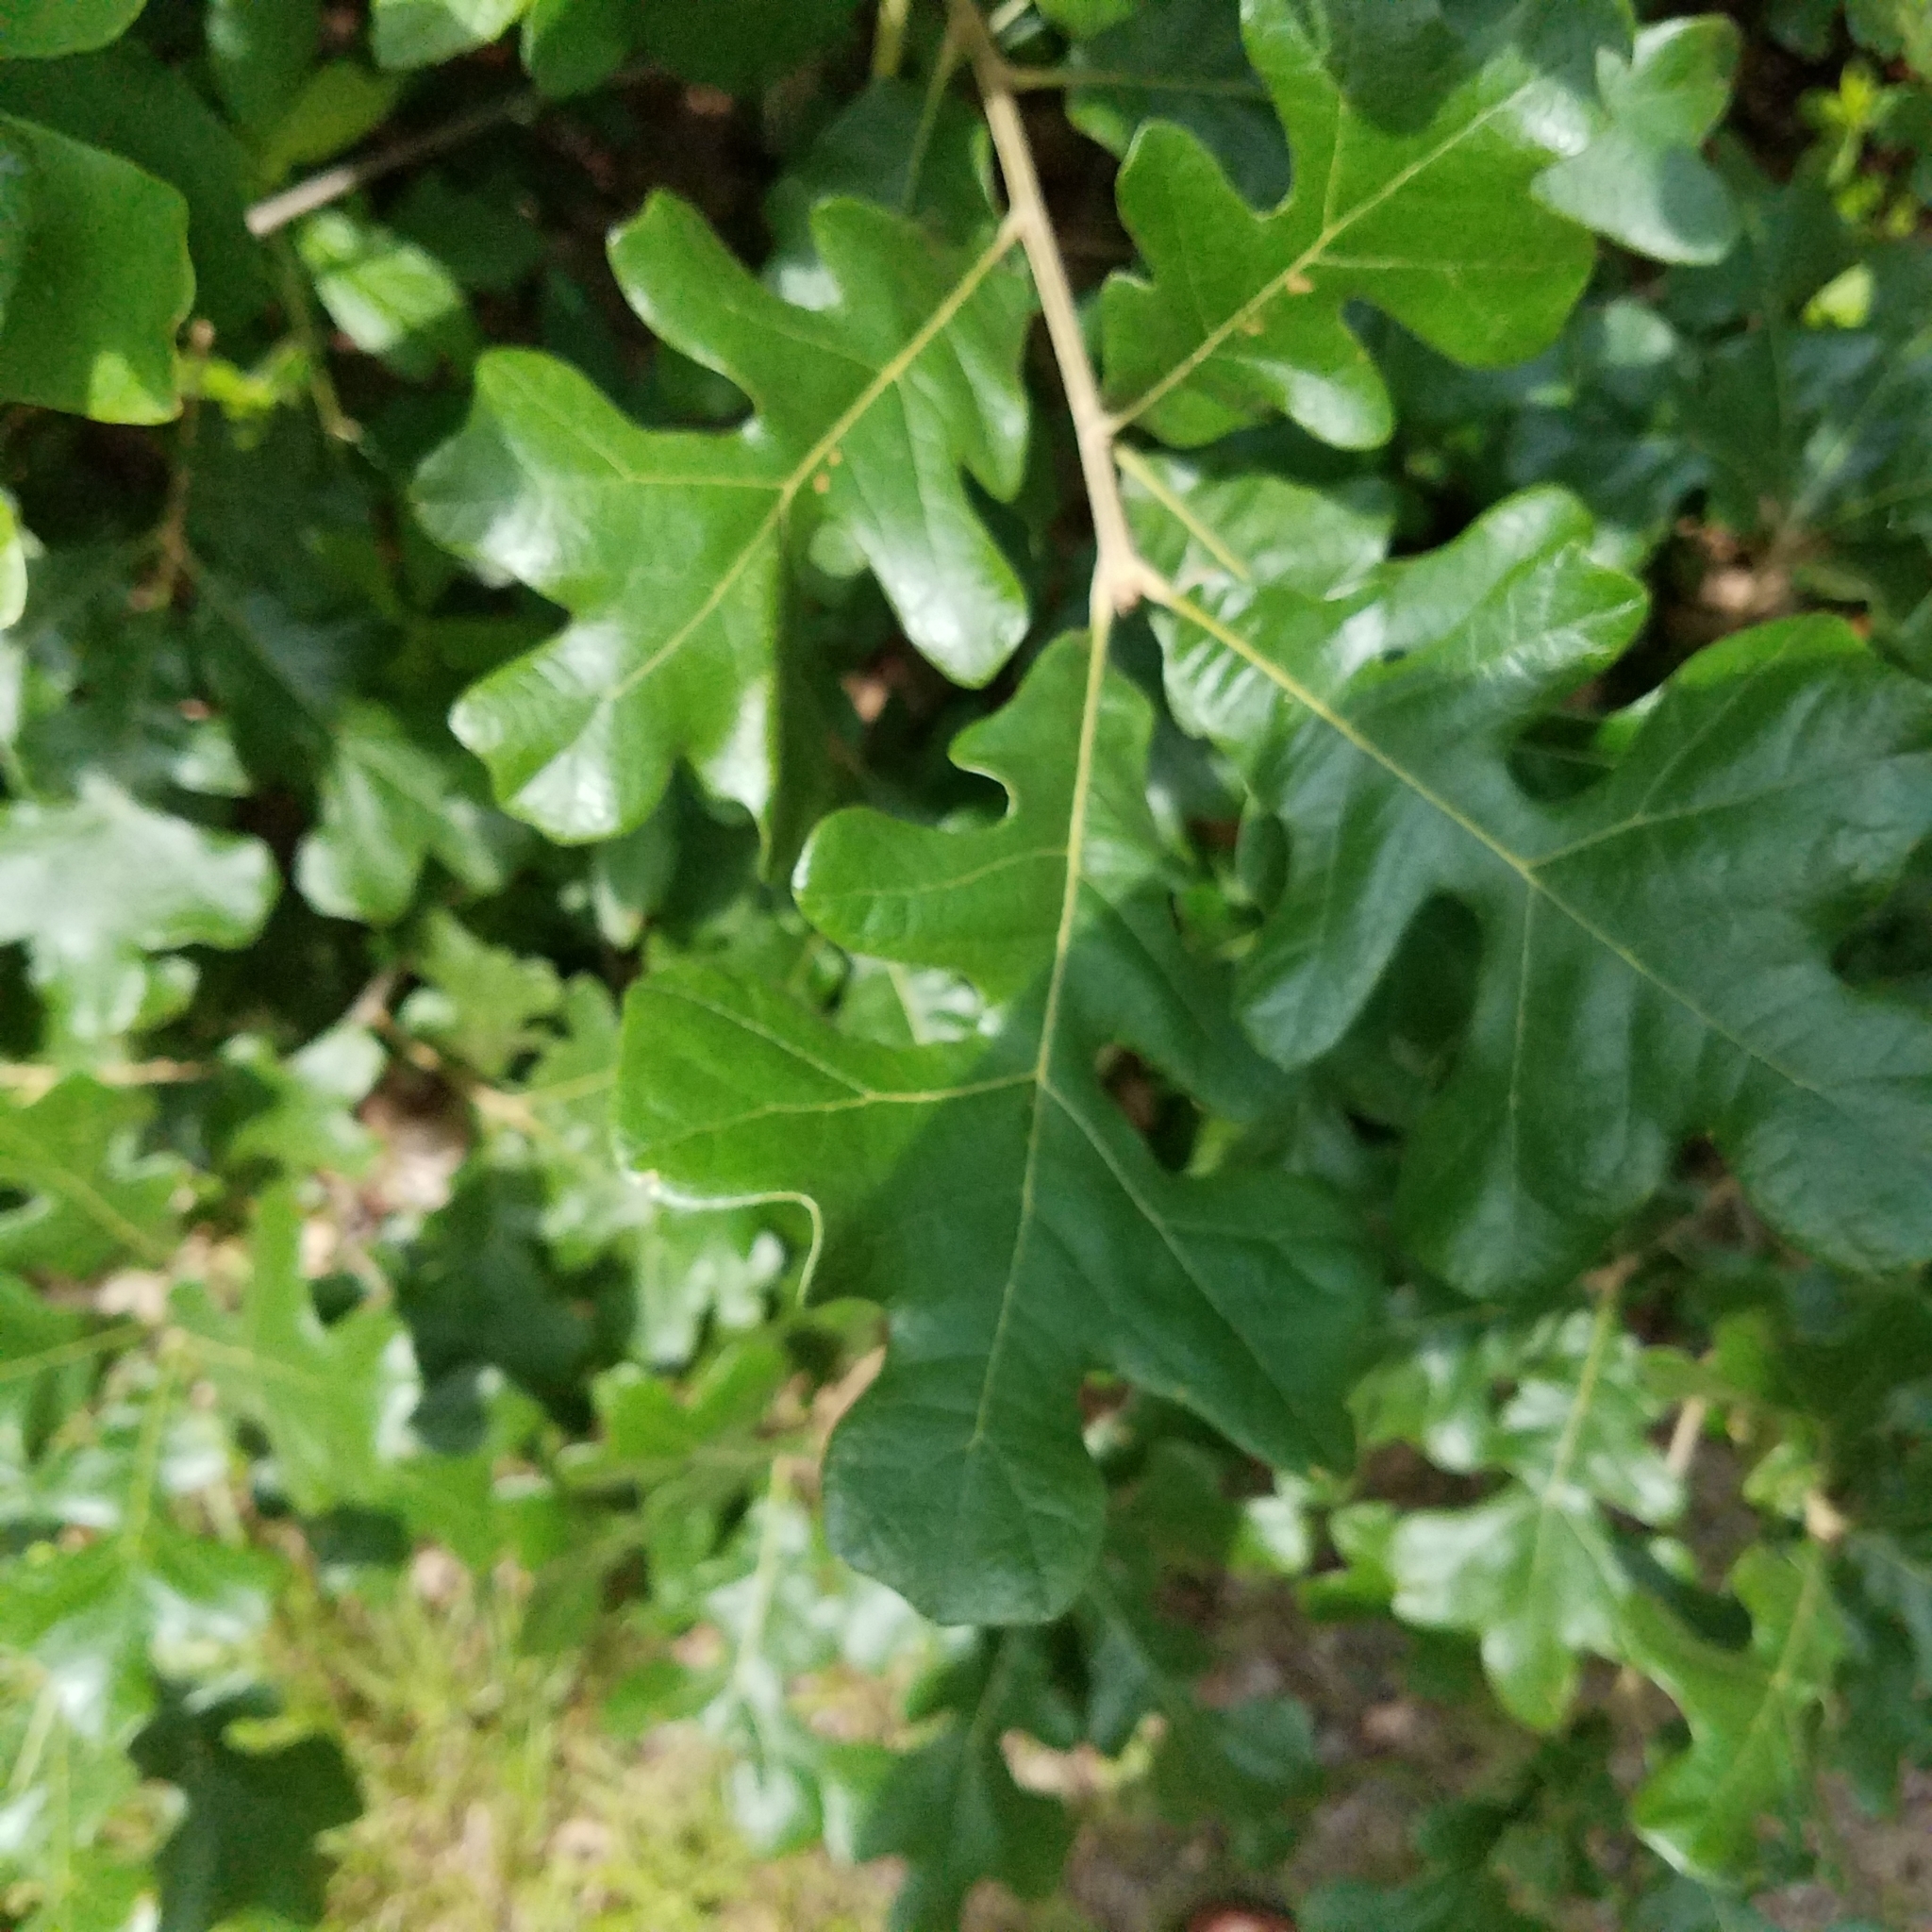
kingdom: Plantae
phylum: Tracheophyta
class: Magnoliopsida
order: Fagales
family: Fagaceae
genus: Quercus
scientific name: Quercus stellata
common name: Post oak
